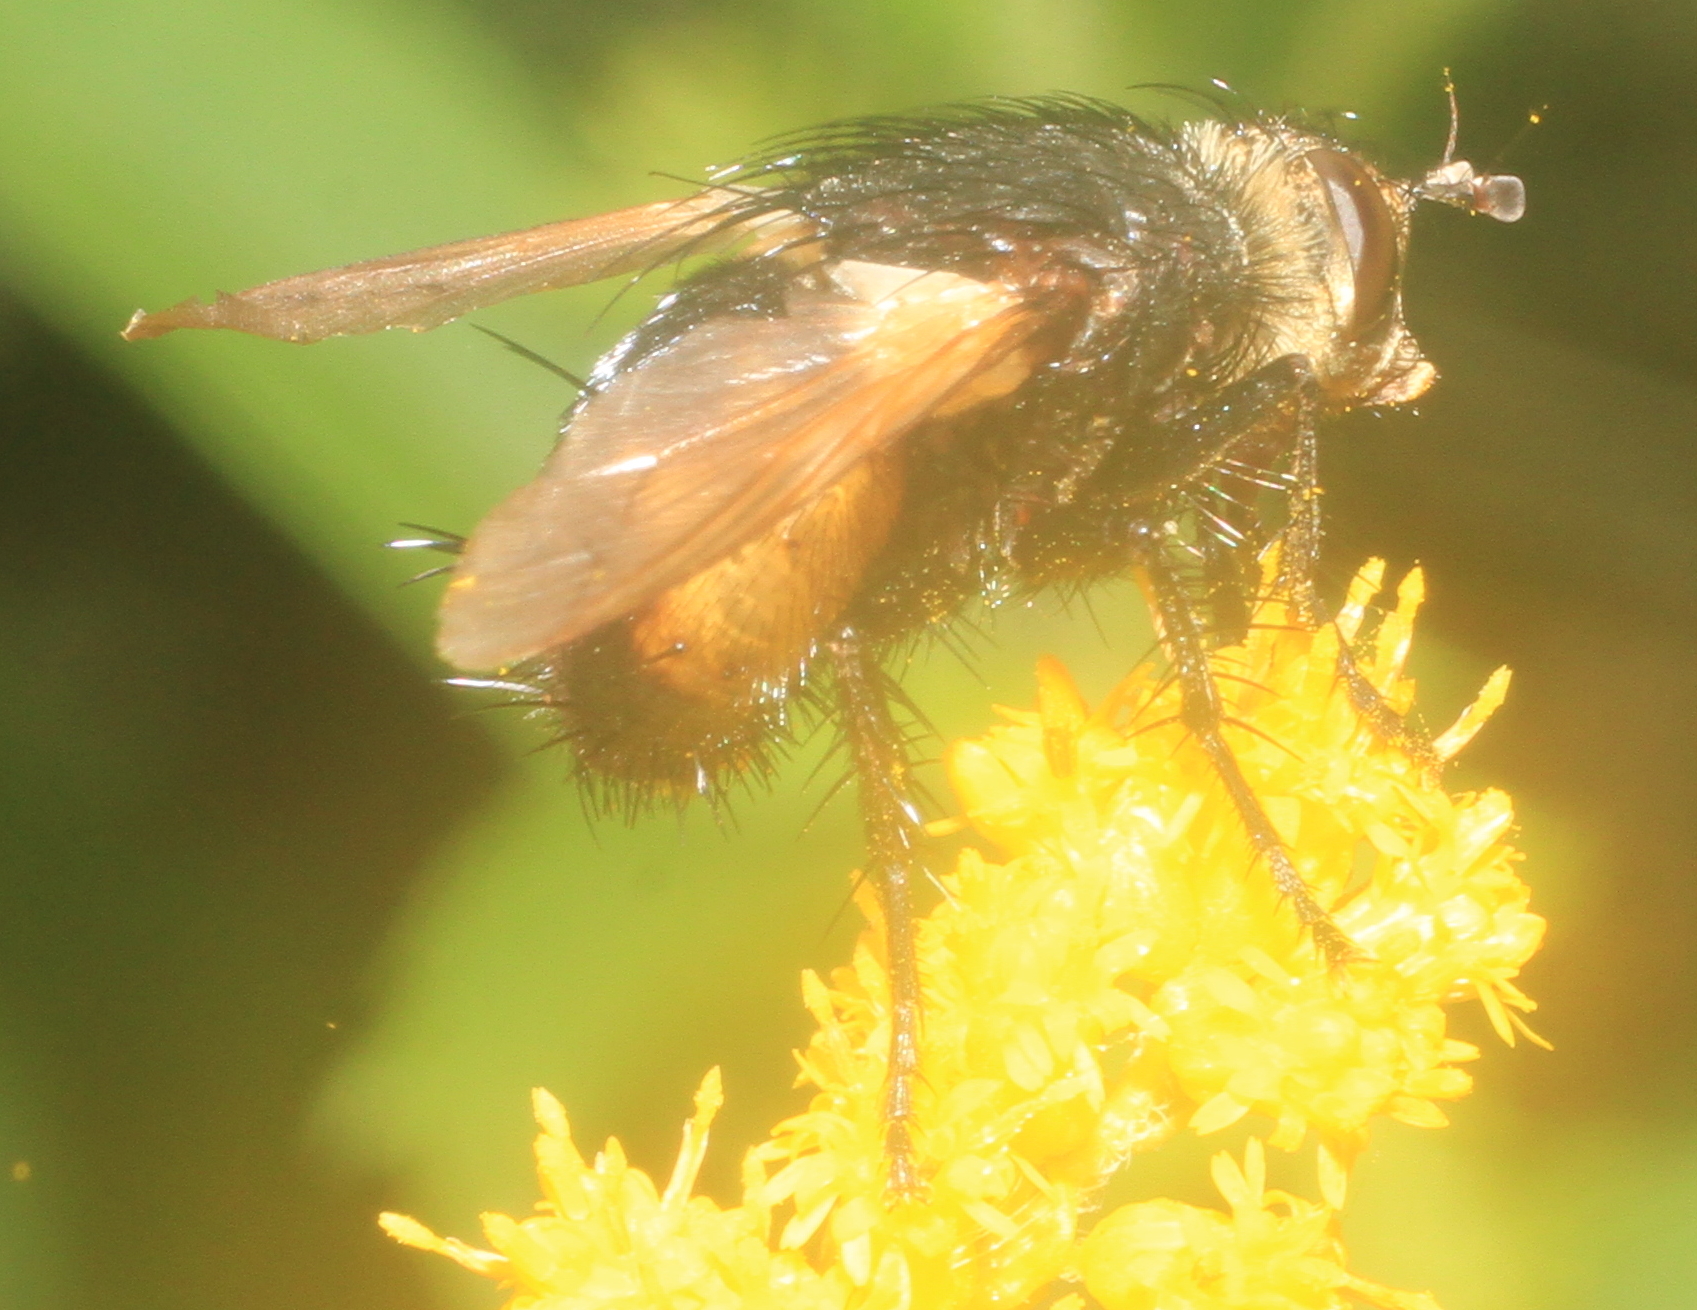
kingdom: Animalia
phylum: Arthropoda
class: Insecta
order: Diptera
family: Tachinidae
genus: Tachina
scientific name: Tachina fera
